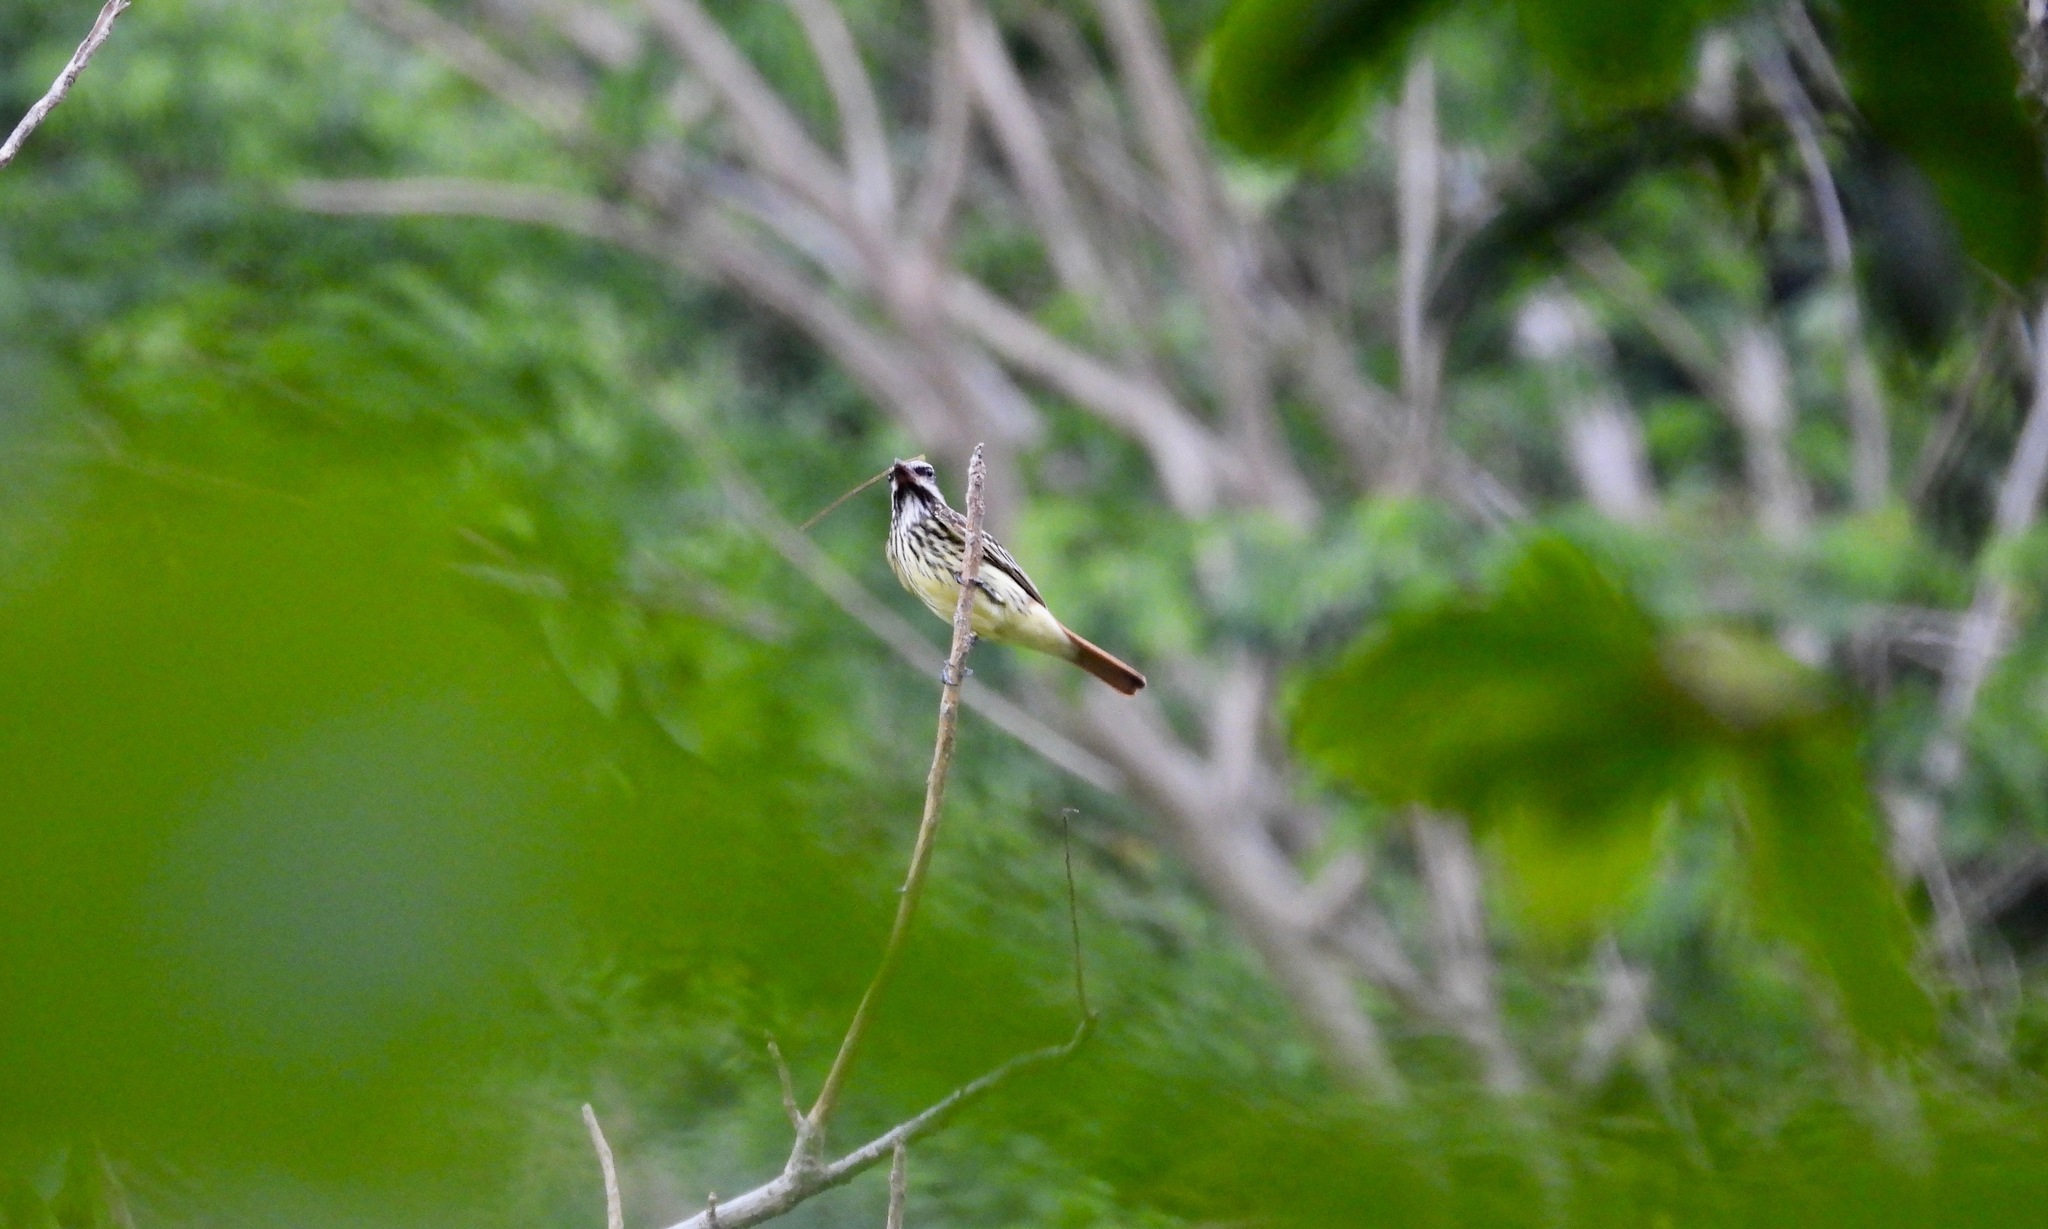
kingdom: Animalia
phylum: Chordata
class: Aves
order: Passeriformes
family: Tyrannidae
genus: Myiodynastes
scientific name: Myiodynastes luteiventris
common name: Sulphur-bellied flycatcher
